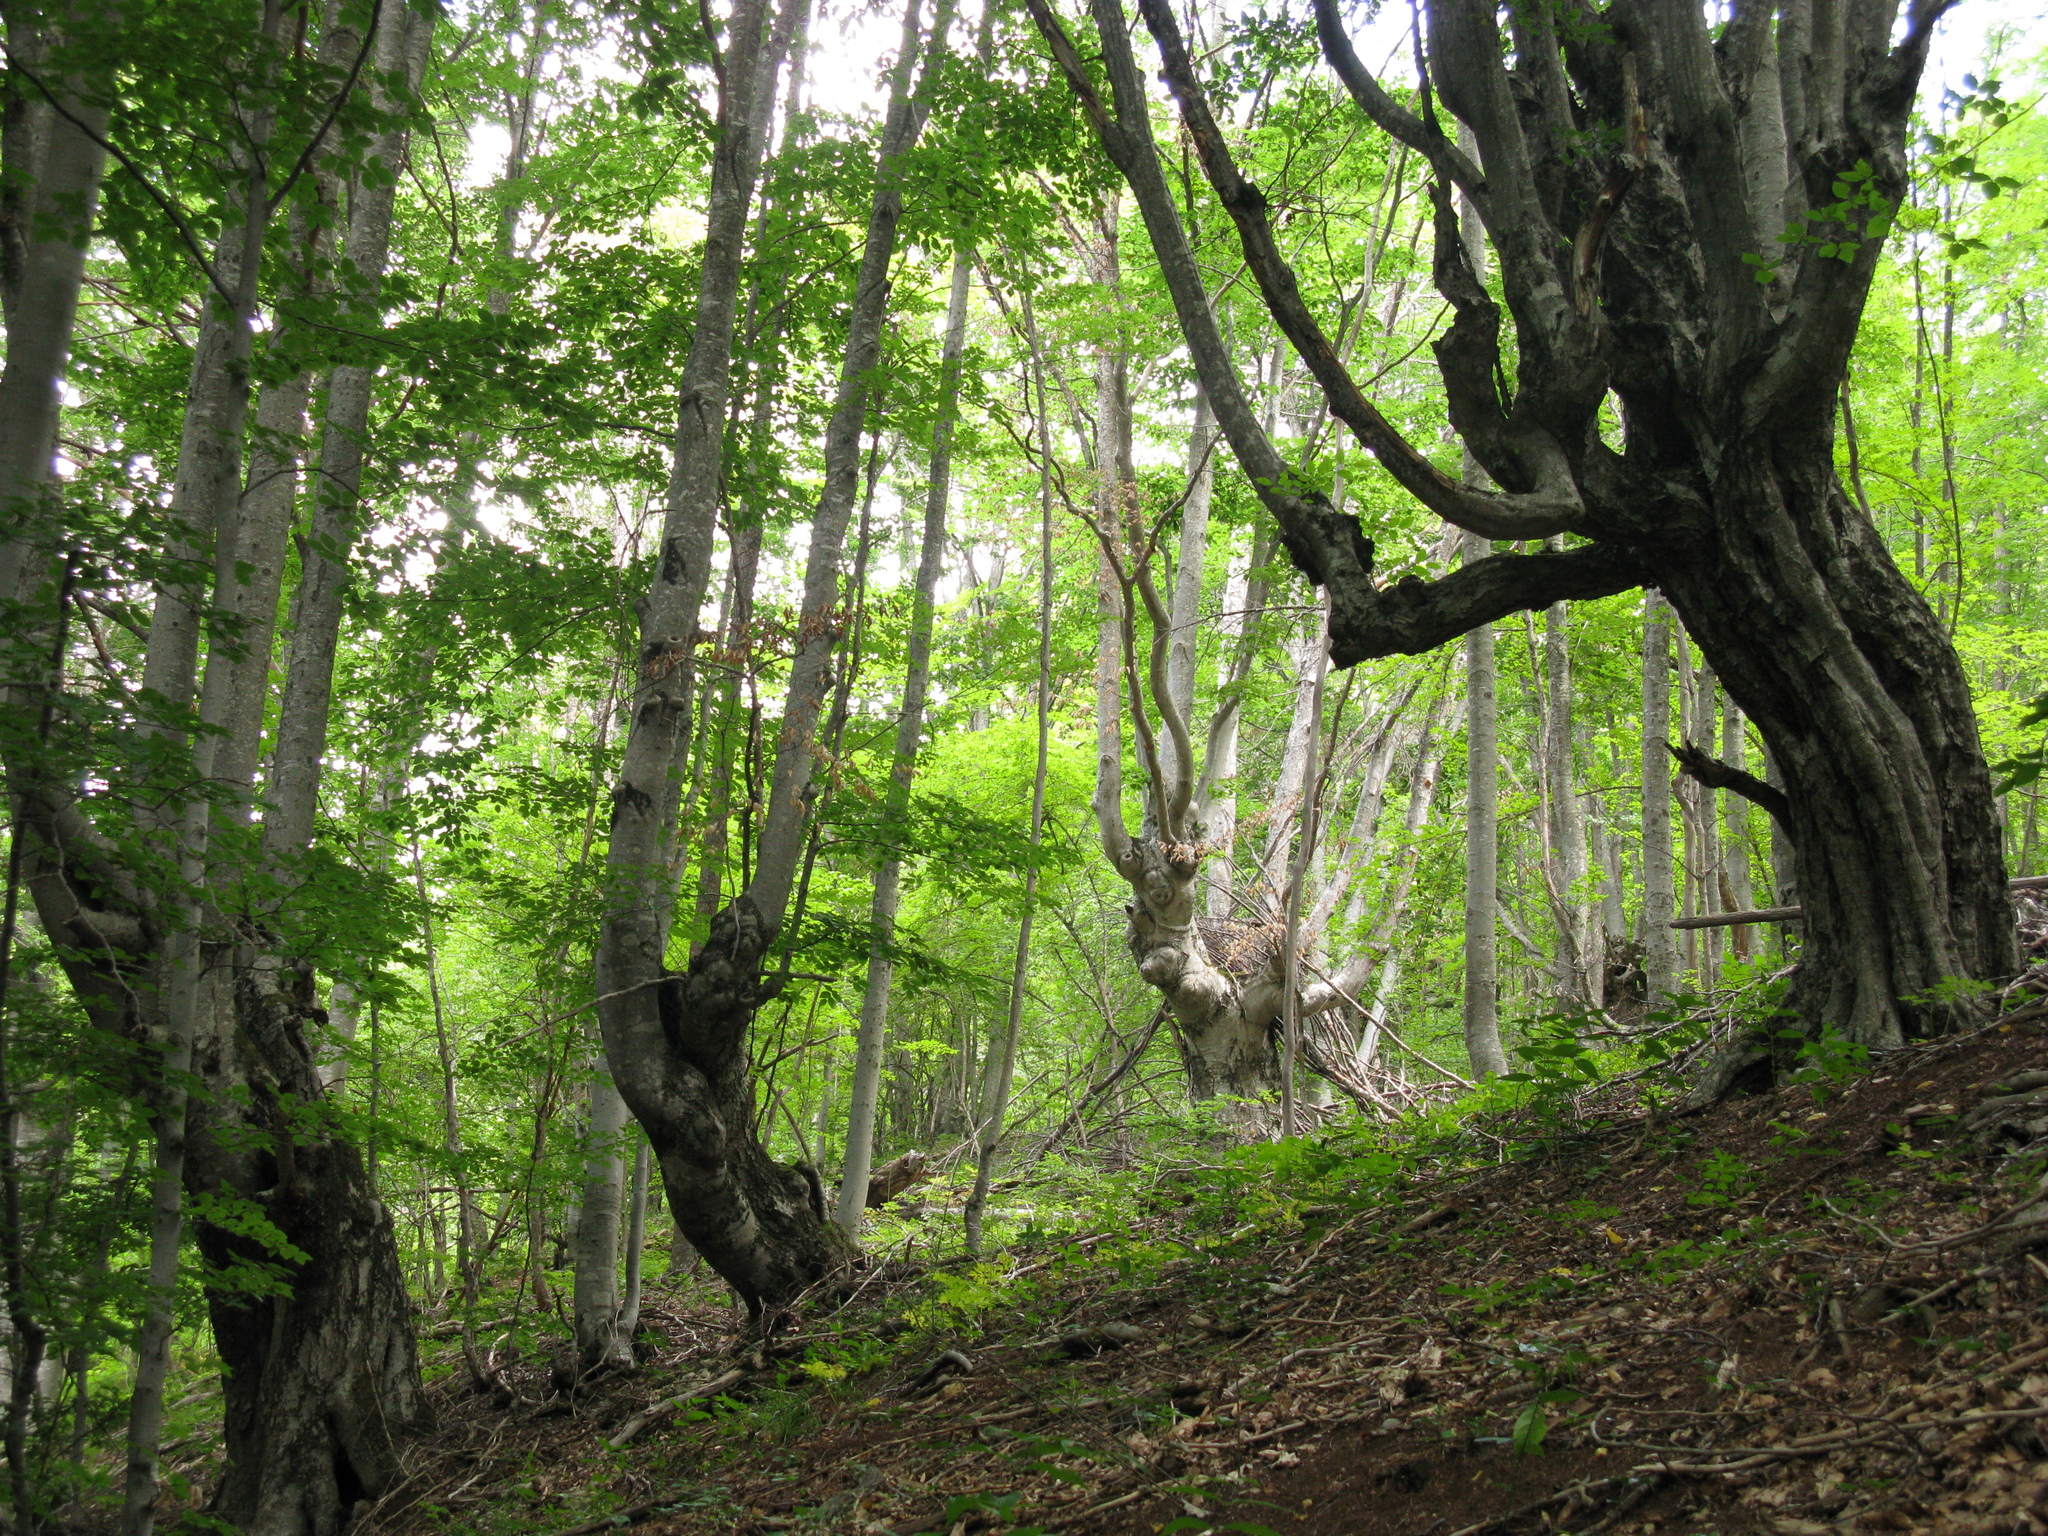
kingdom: Plantae
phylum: Tracheophyta
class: Magnoliopsida
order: Fagales
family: Fagaceae
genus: Fagus
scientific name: Fagus taurica
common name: Crimean beech
